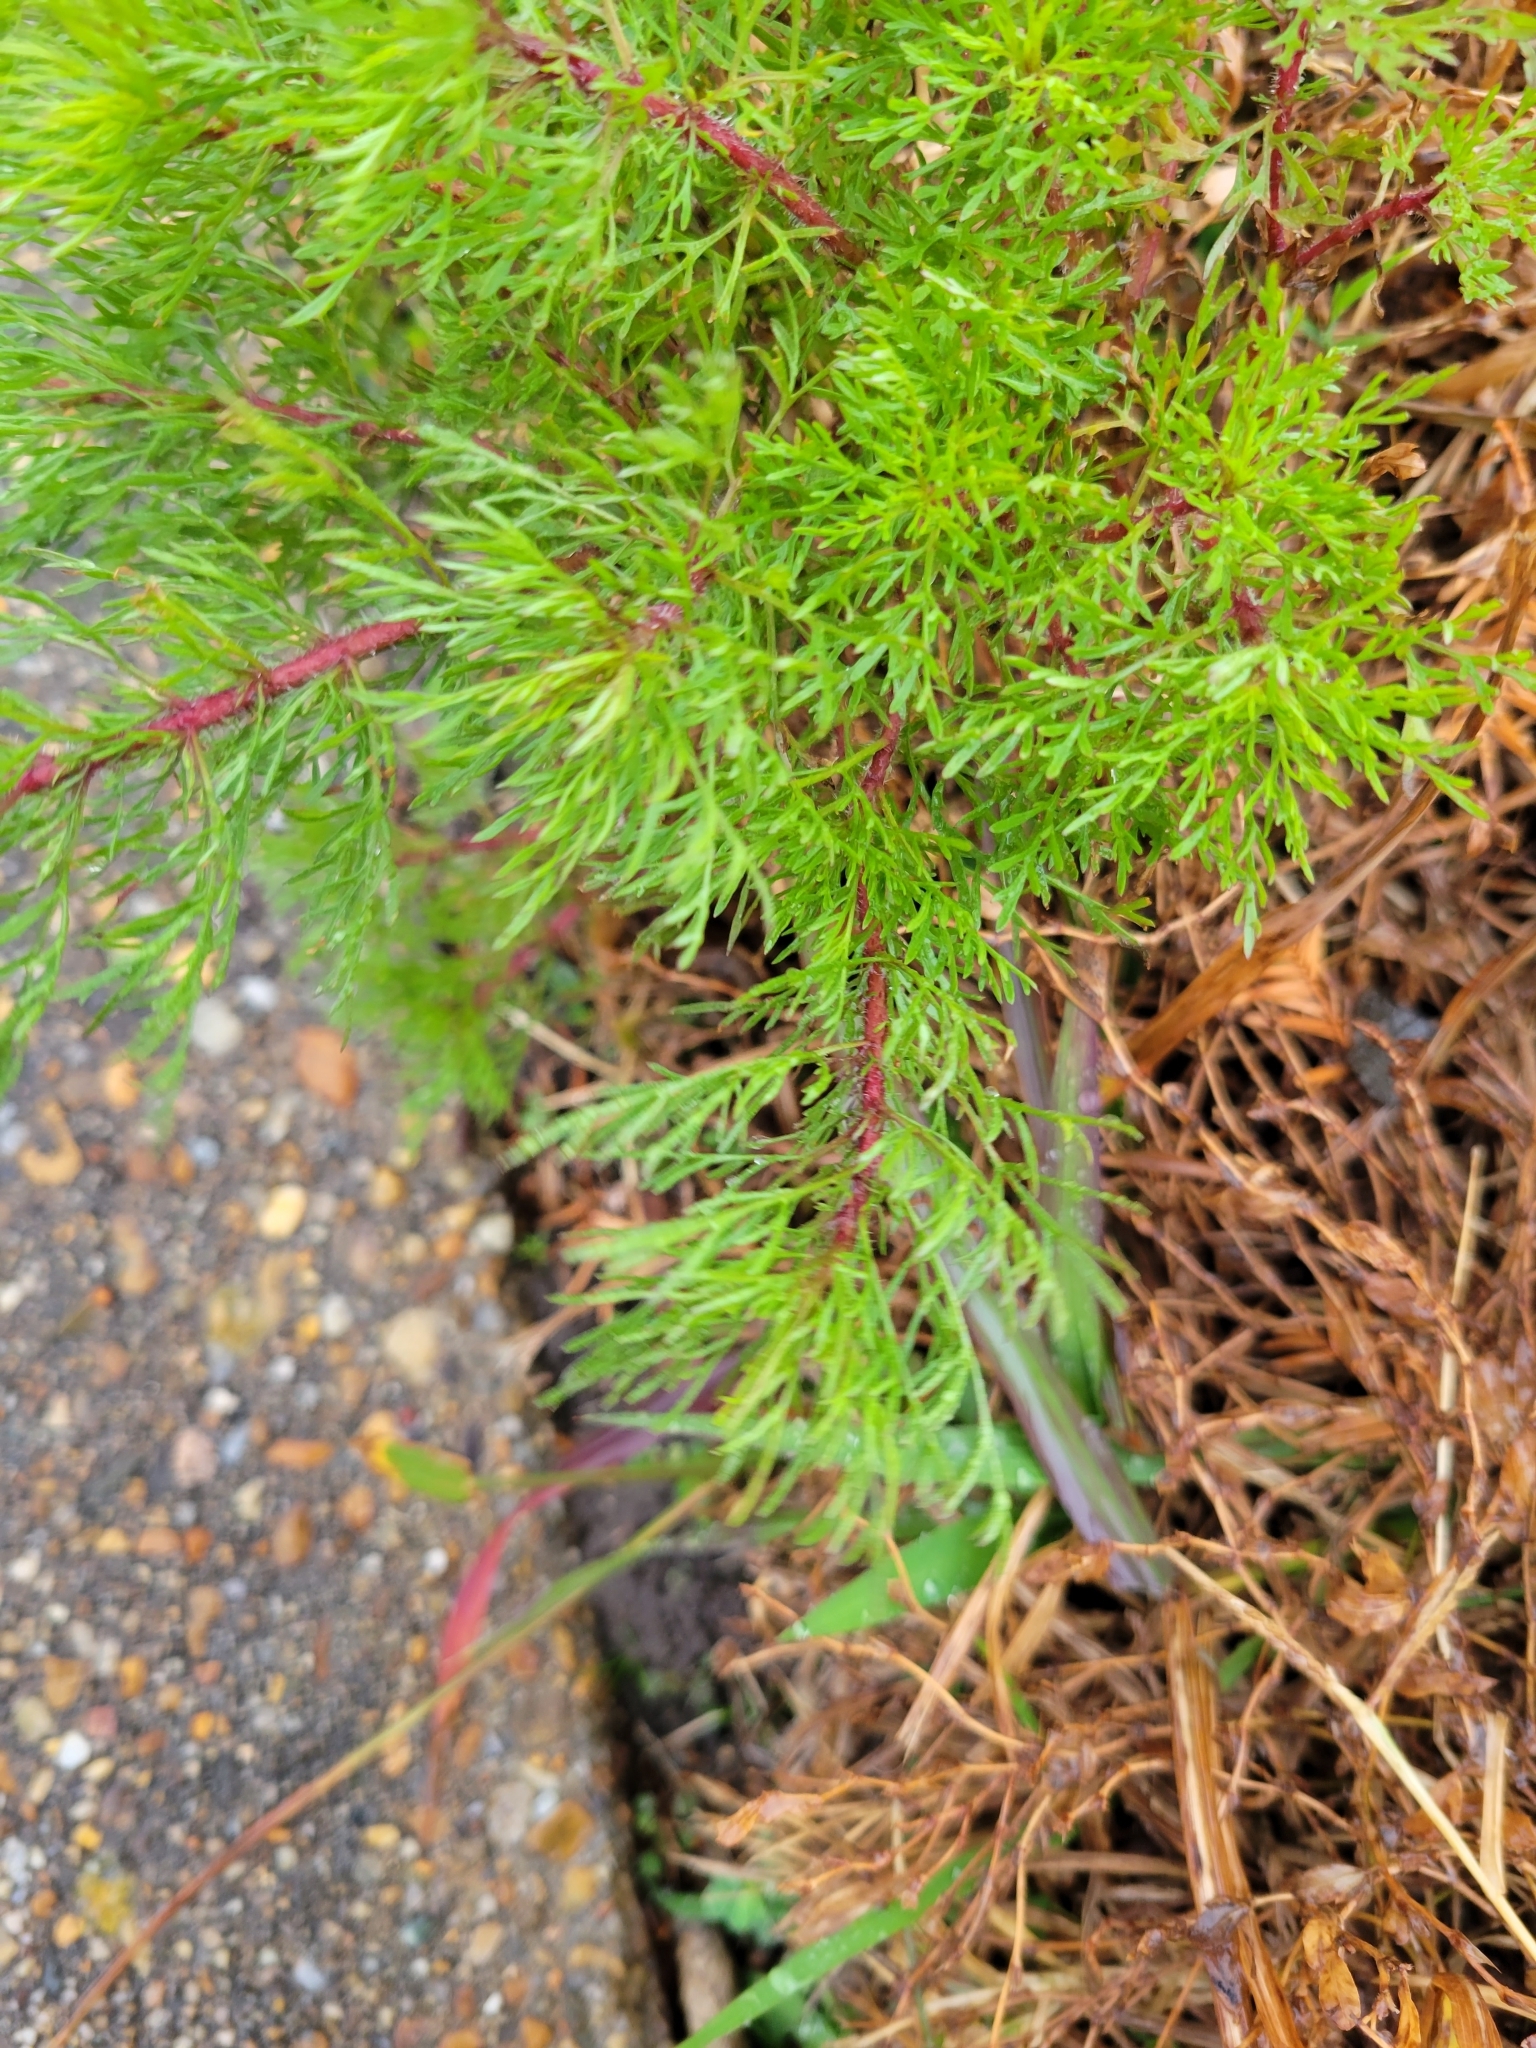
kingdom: Plantae
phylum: Tracheophyta
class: Magnoliopsida
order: Asterales
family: Asteraceae
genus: Eupatorium
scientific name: Eupatorium capillifolium
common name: Dog-fennel
